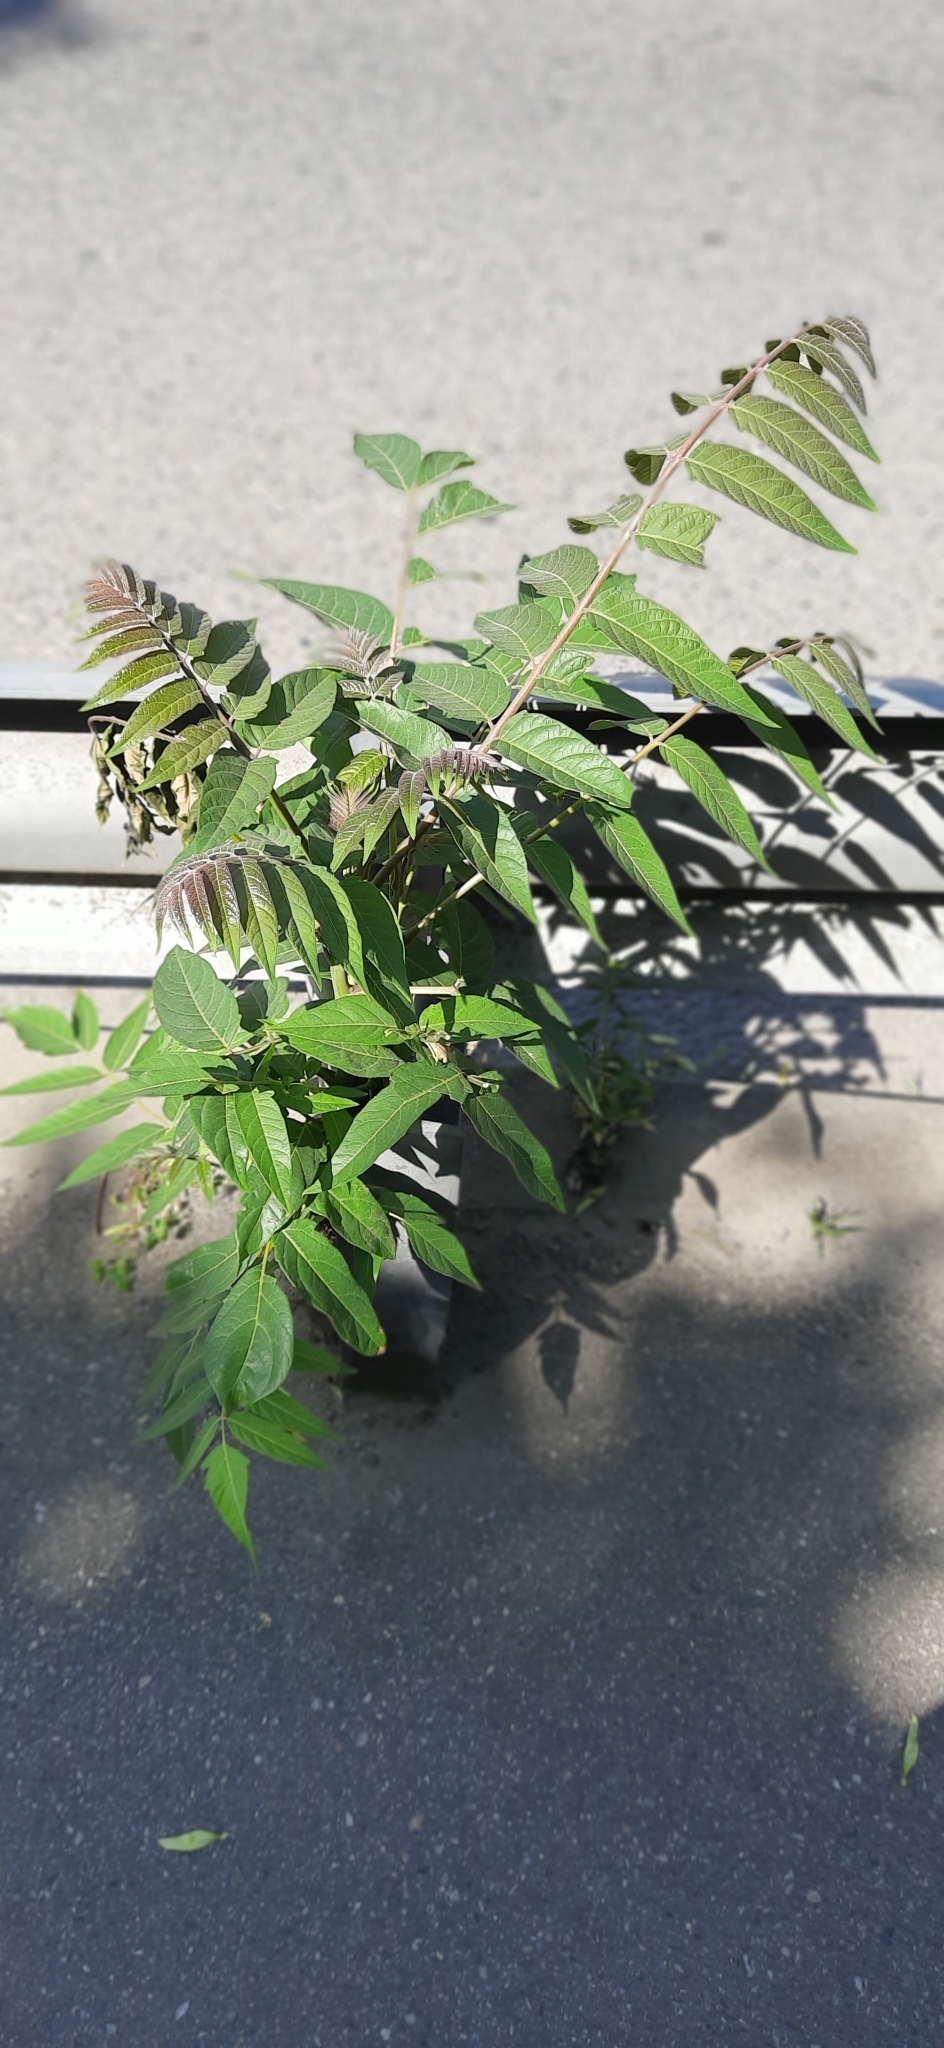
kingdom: Plantae
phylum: Tracheophyta
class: Magnoliopsida
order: Sapindales
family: Simaroubaceae
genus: Ailanthus
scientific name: Ailanthus altissima
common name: Tree-of-heaven
